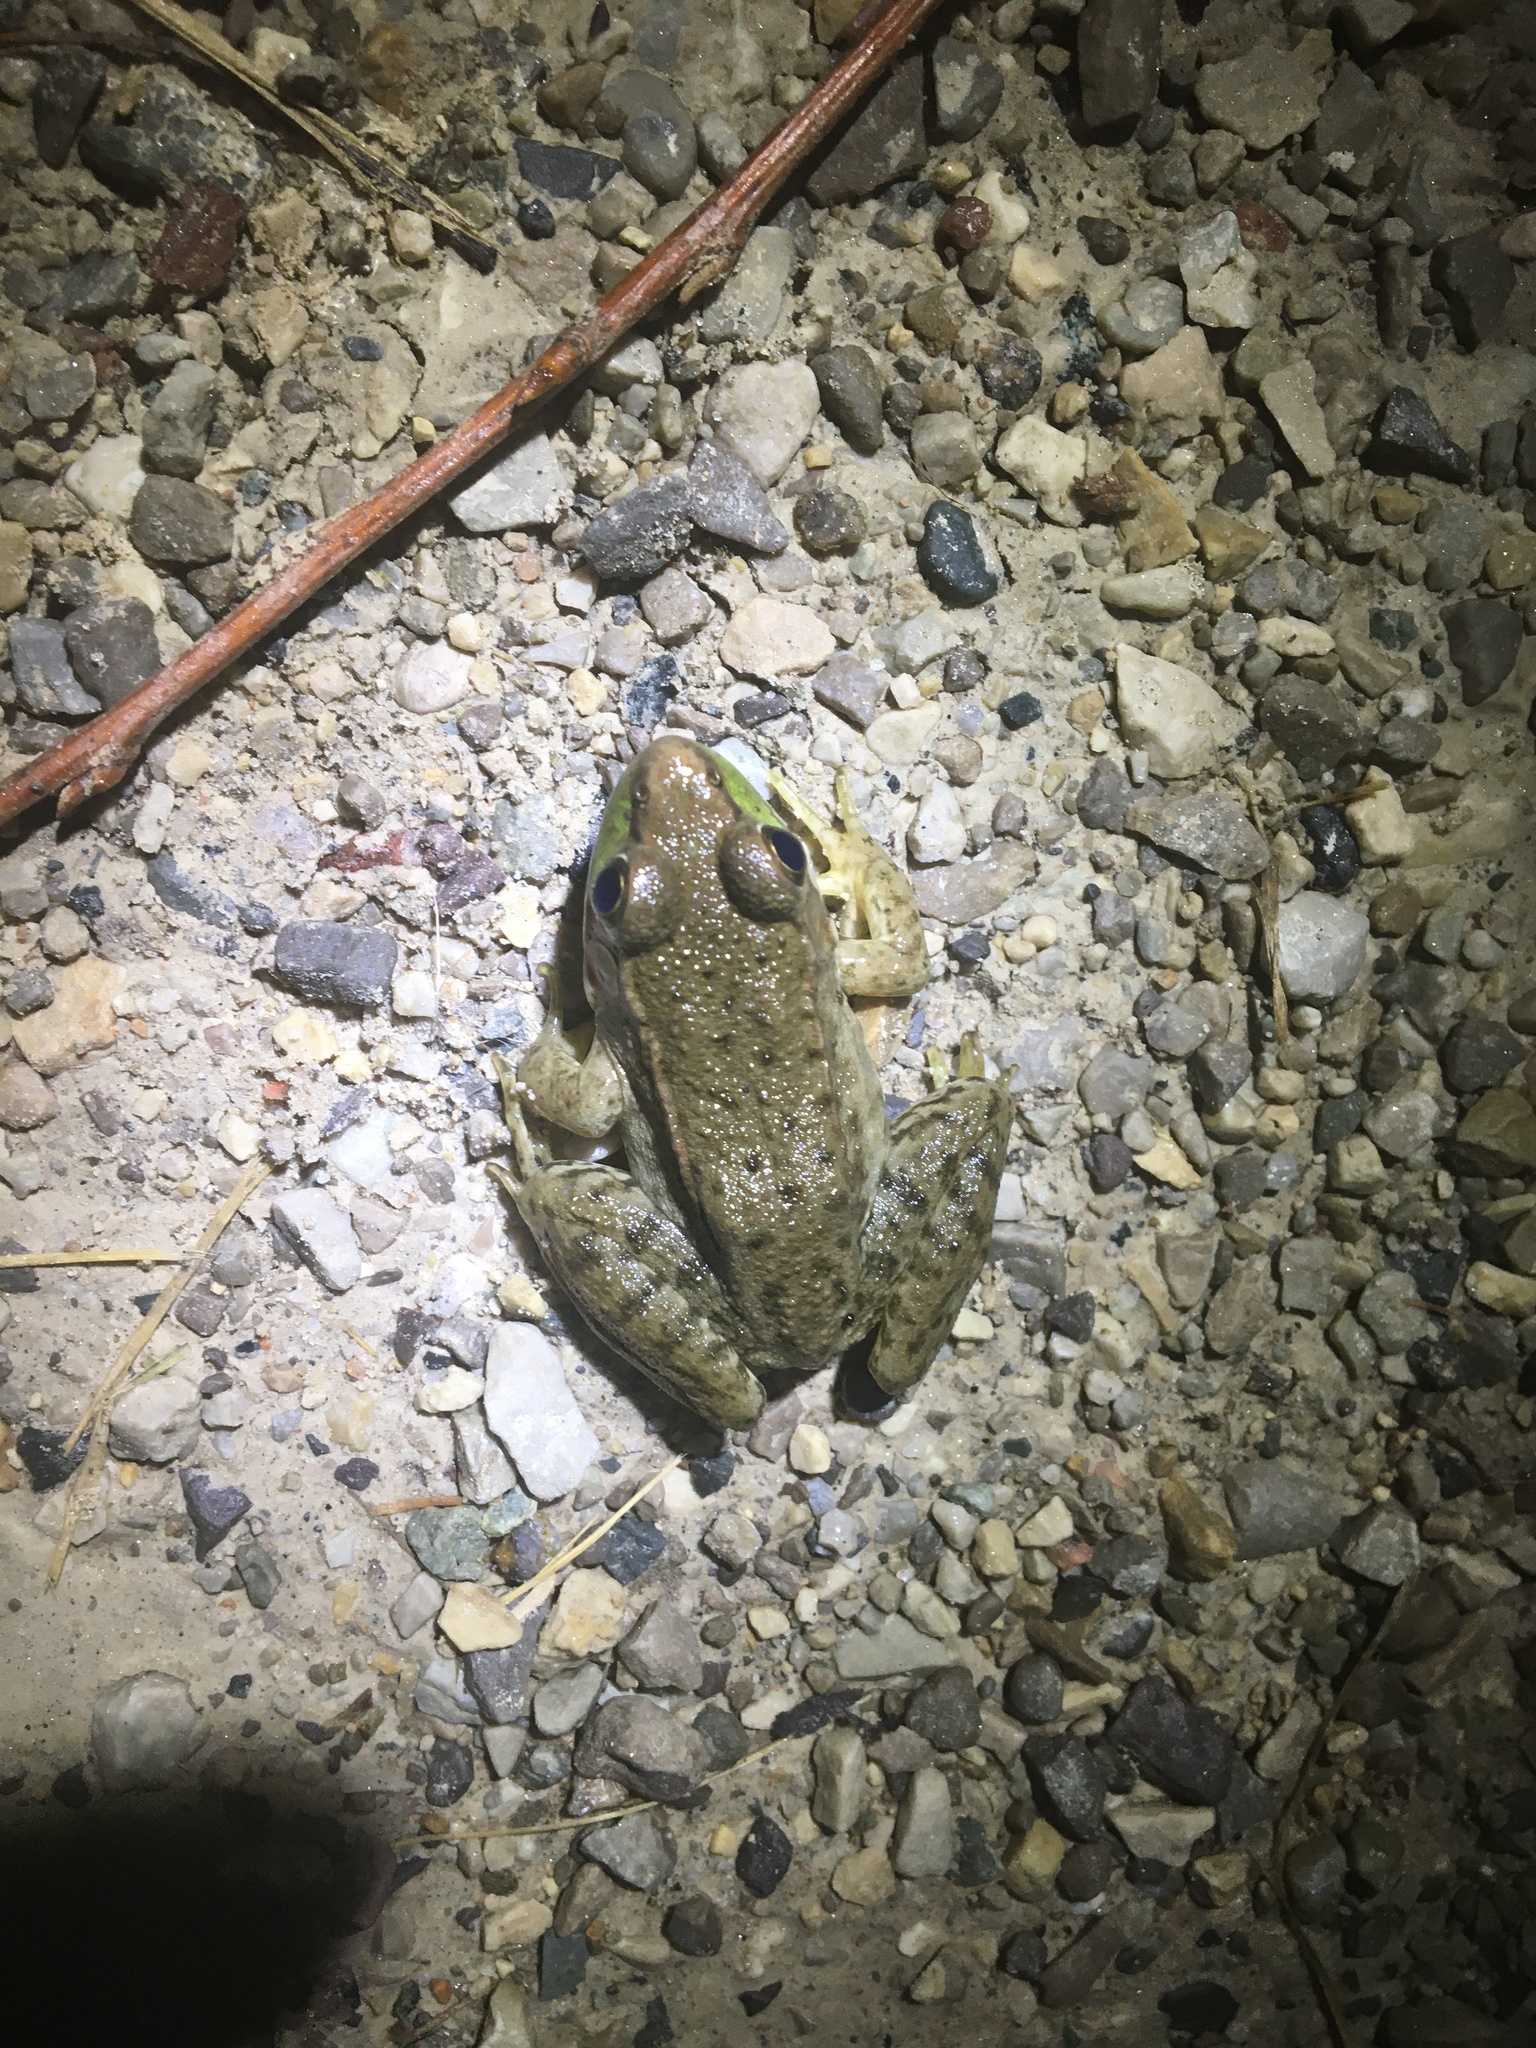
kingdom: Animalia
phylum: Chordata
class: Amphibia
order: Anura
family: Ranidae
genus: Lithobates
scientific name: Lithobates clamitans
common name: Green frog
